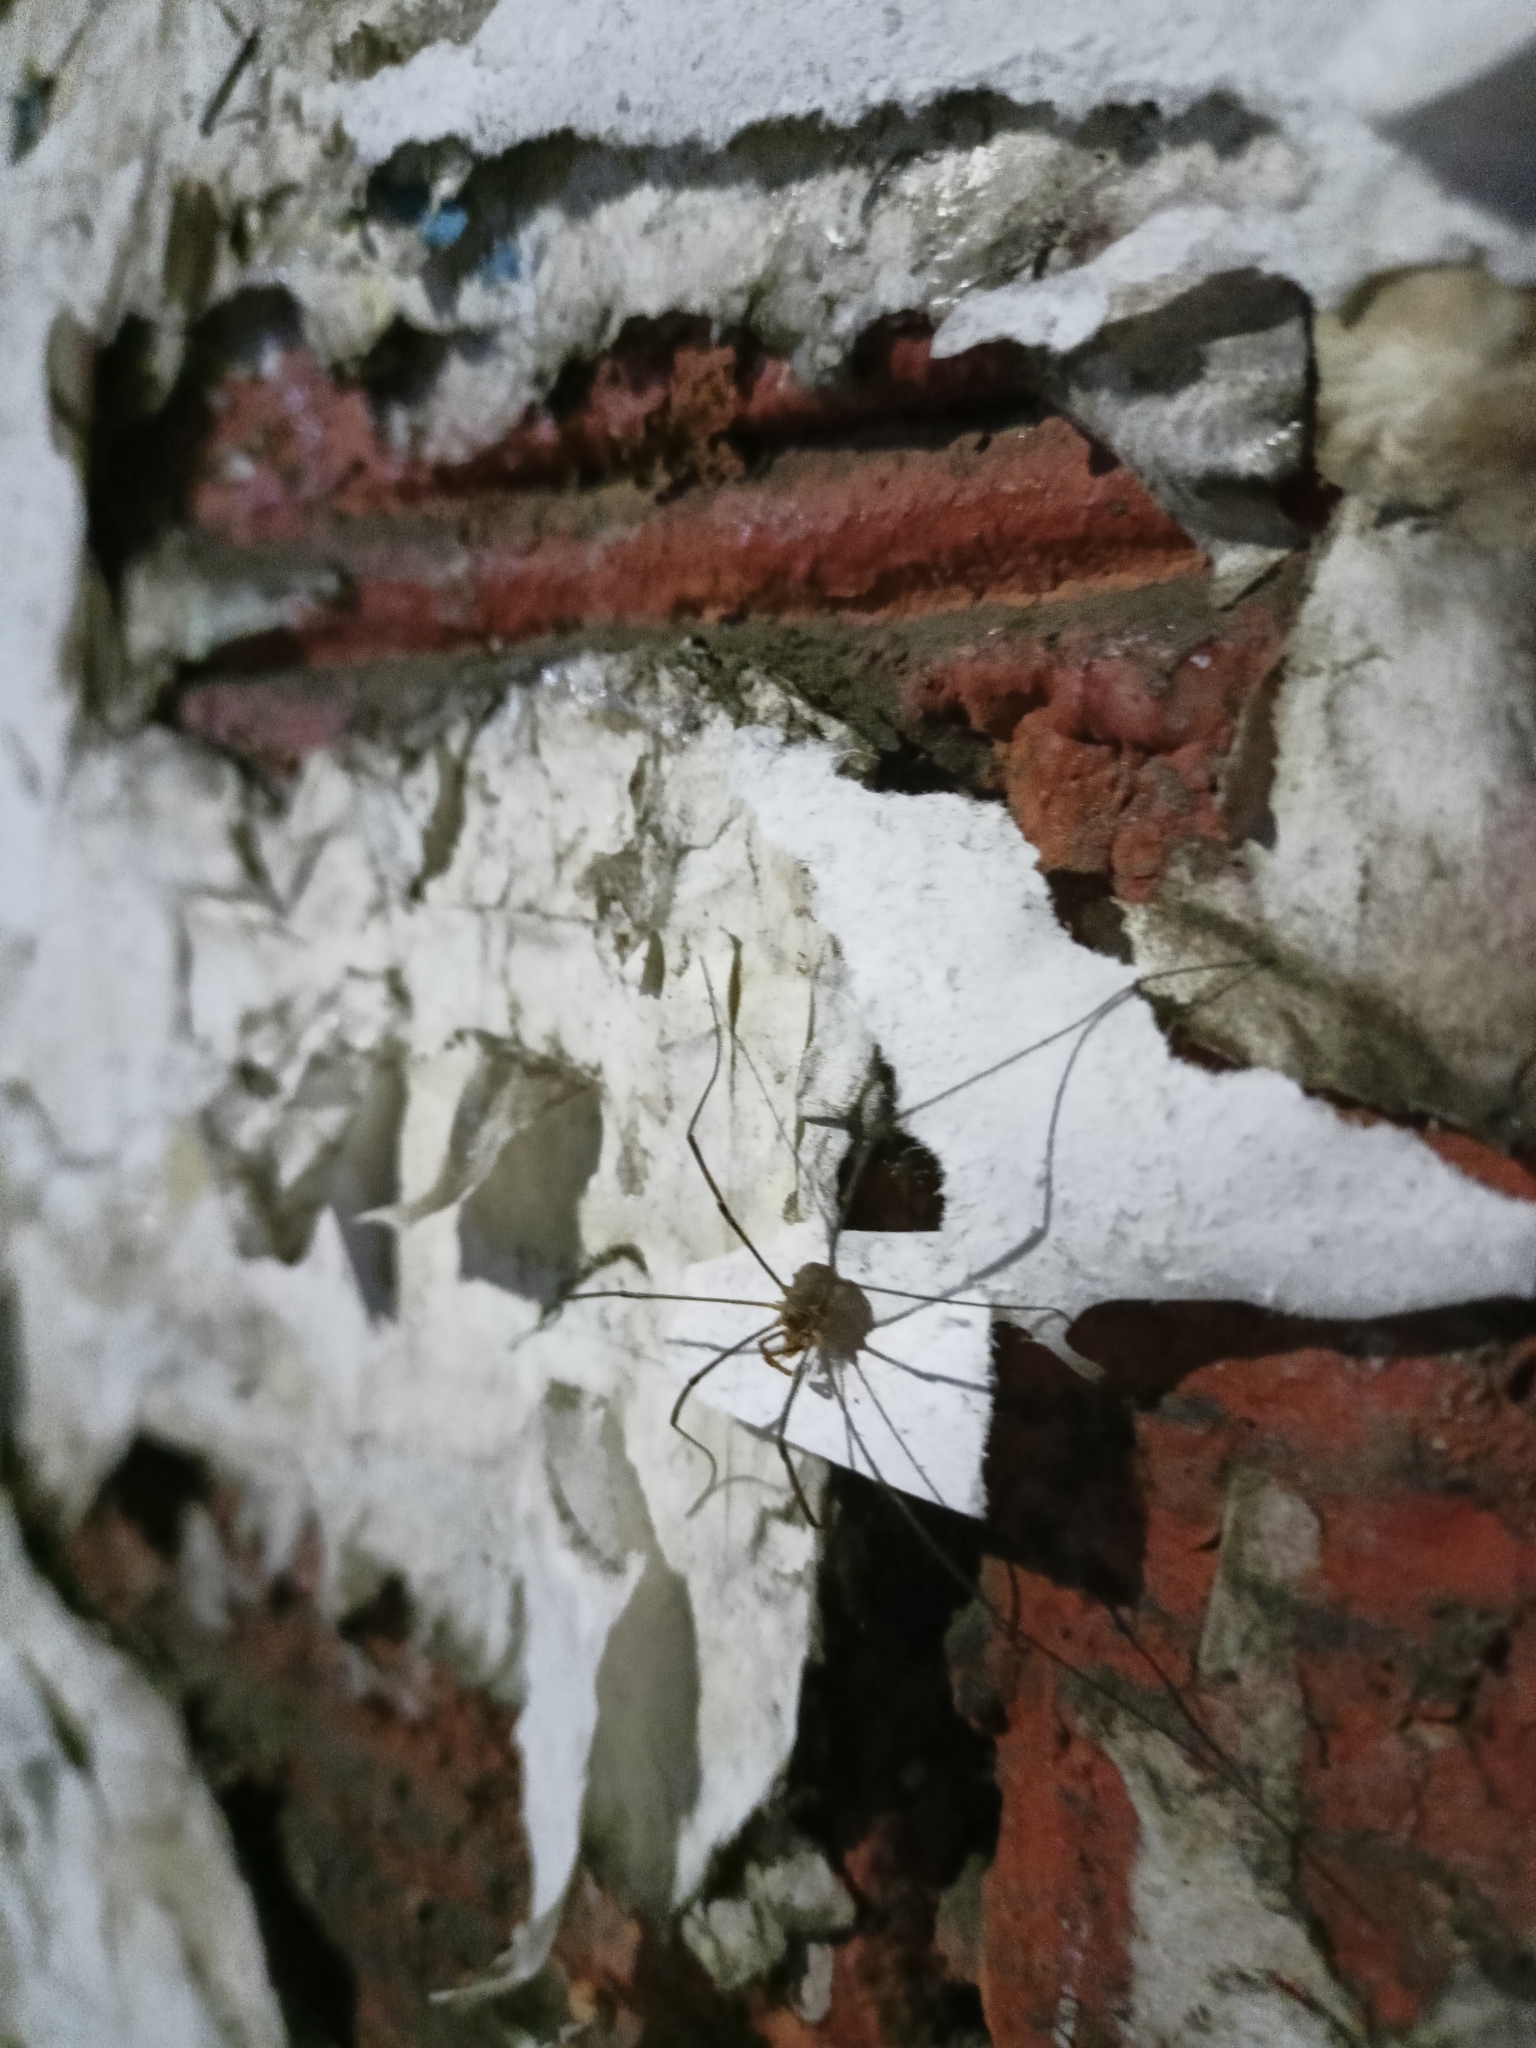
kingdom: Animalia
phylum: Arthropoda
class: Arachnida
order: Opiliones
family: Phalangiidae
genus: Phalangium
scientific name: Phalangium opilio
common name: Daddy longleg
